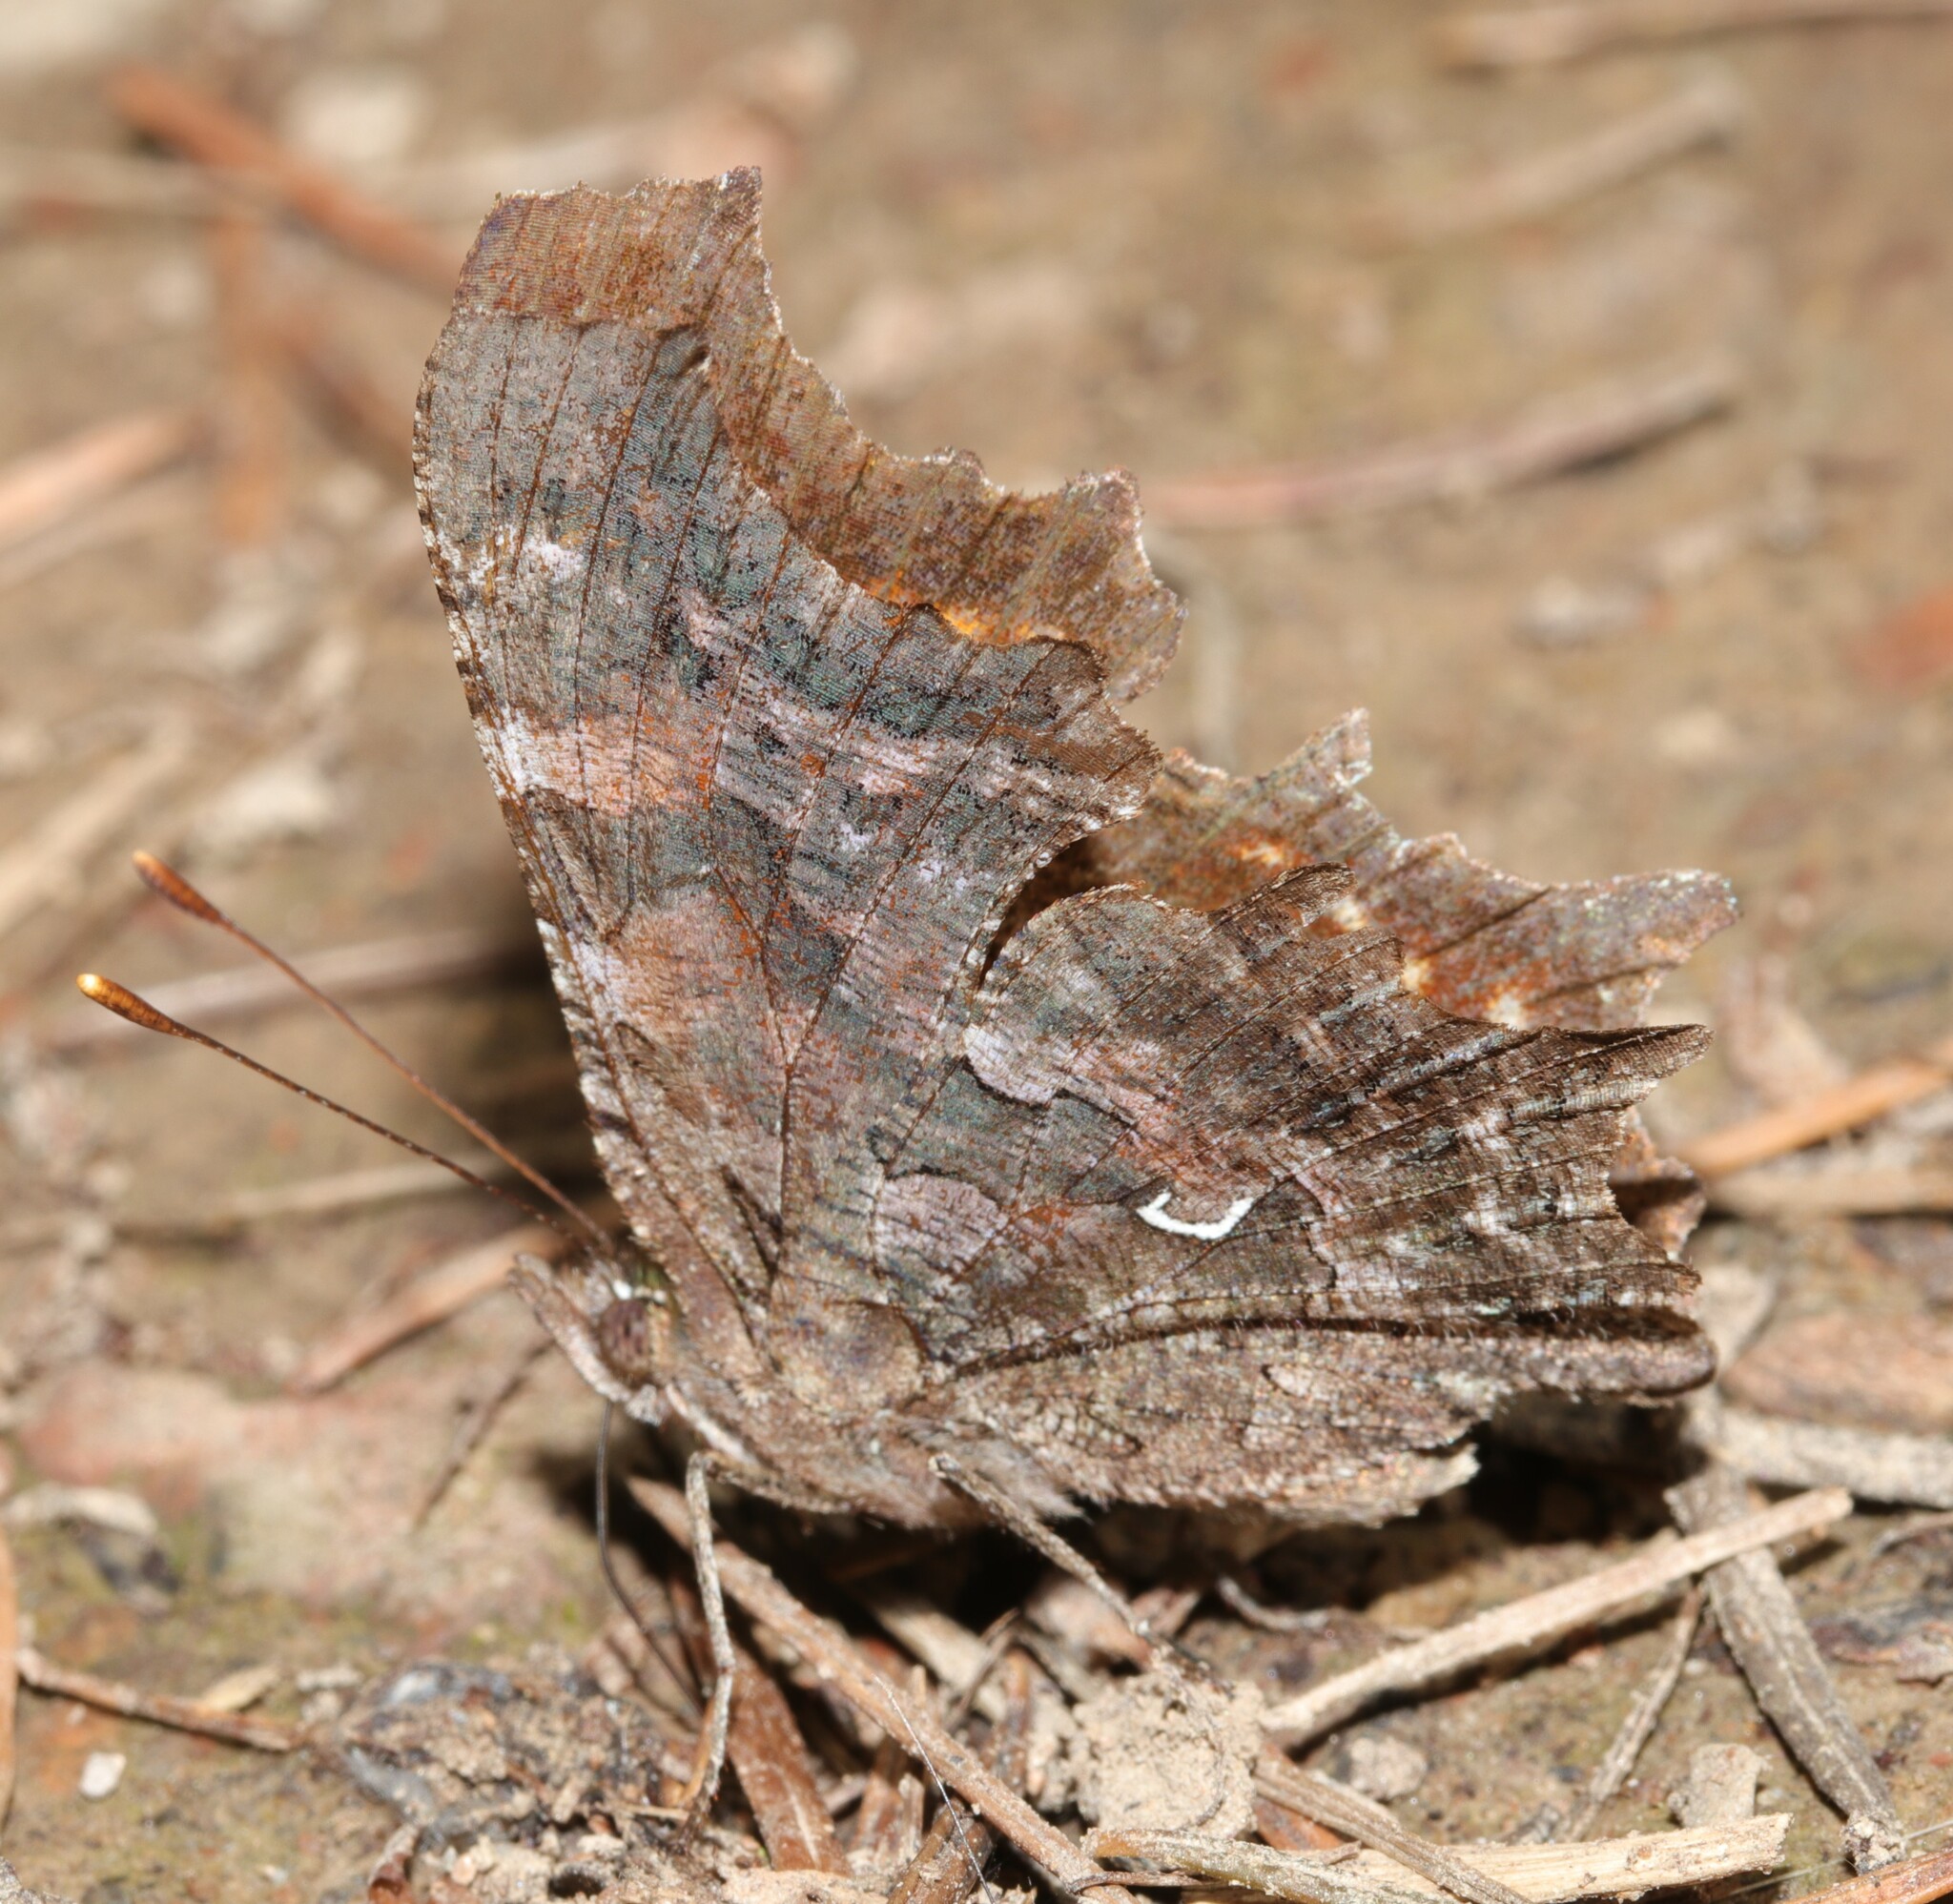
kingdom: Animalia
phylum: Arthropoda
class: Insecta
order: Lepidoptera
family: Nymphalidae
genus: Polygonia
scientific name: Polygonia faunus
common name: Green comma
